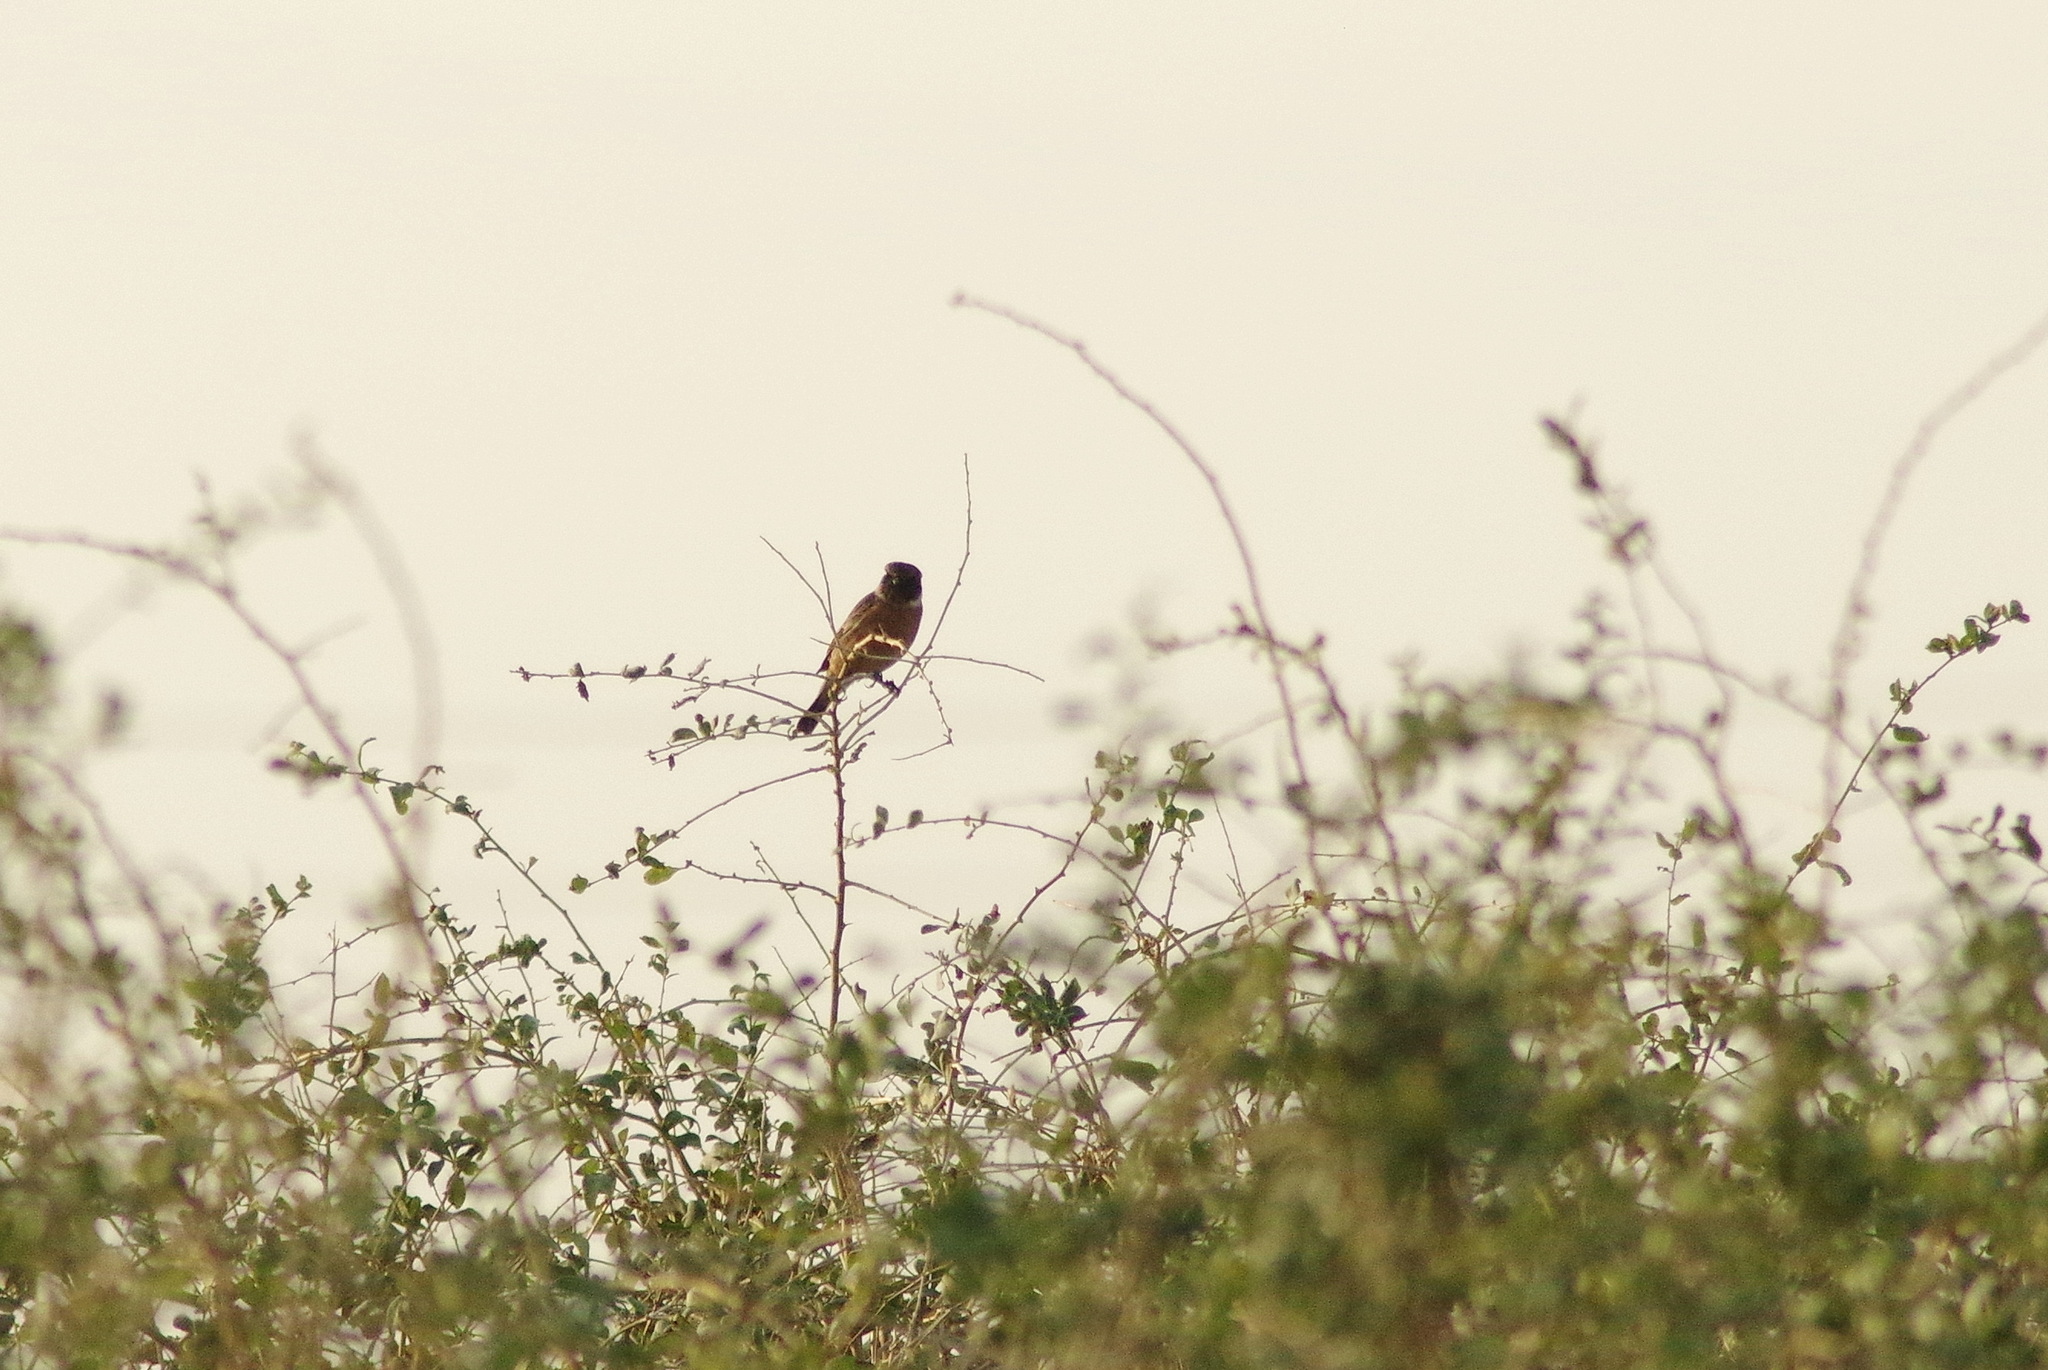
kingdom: Animalia
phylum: Chordata
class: Aves
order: Passeriformes
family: Muscicapidae
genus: Saxicola
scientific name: Saxicola rubicola
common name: European stonechat
